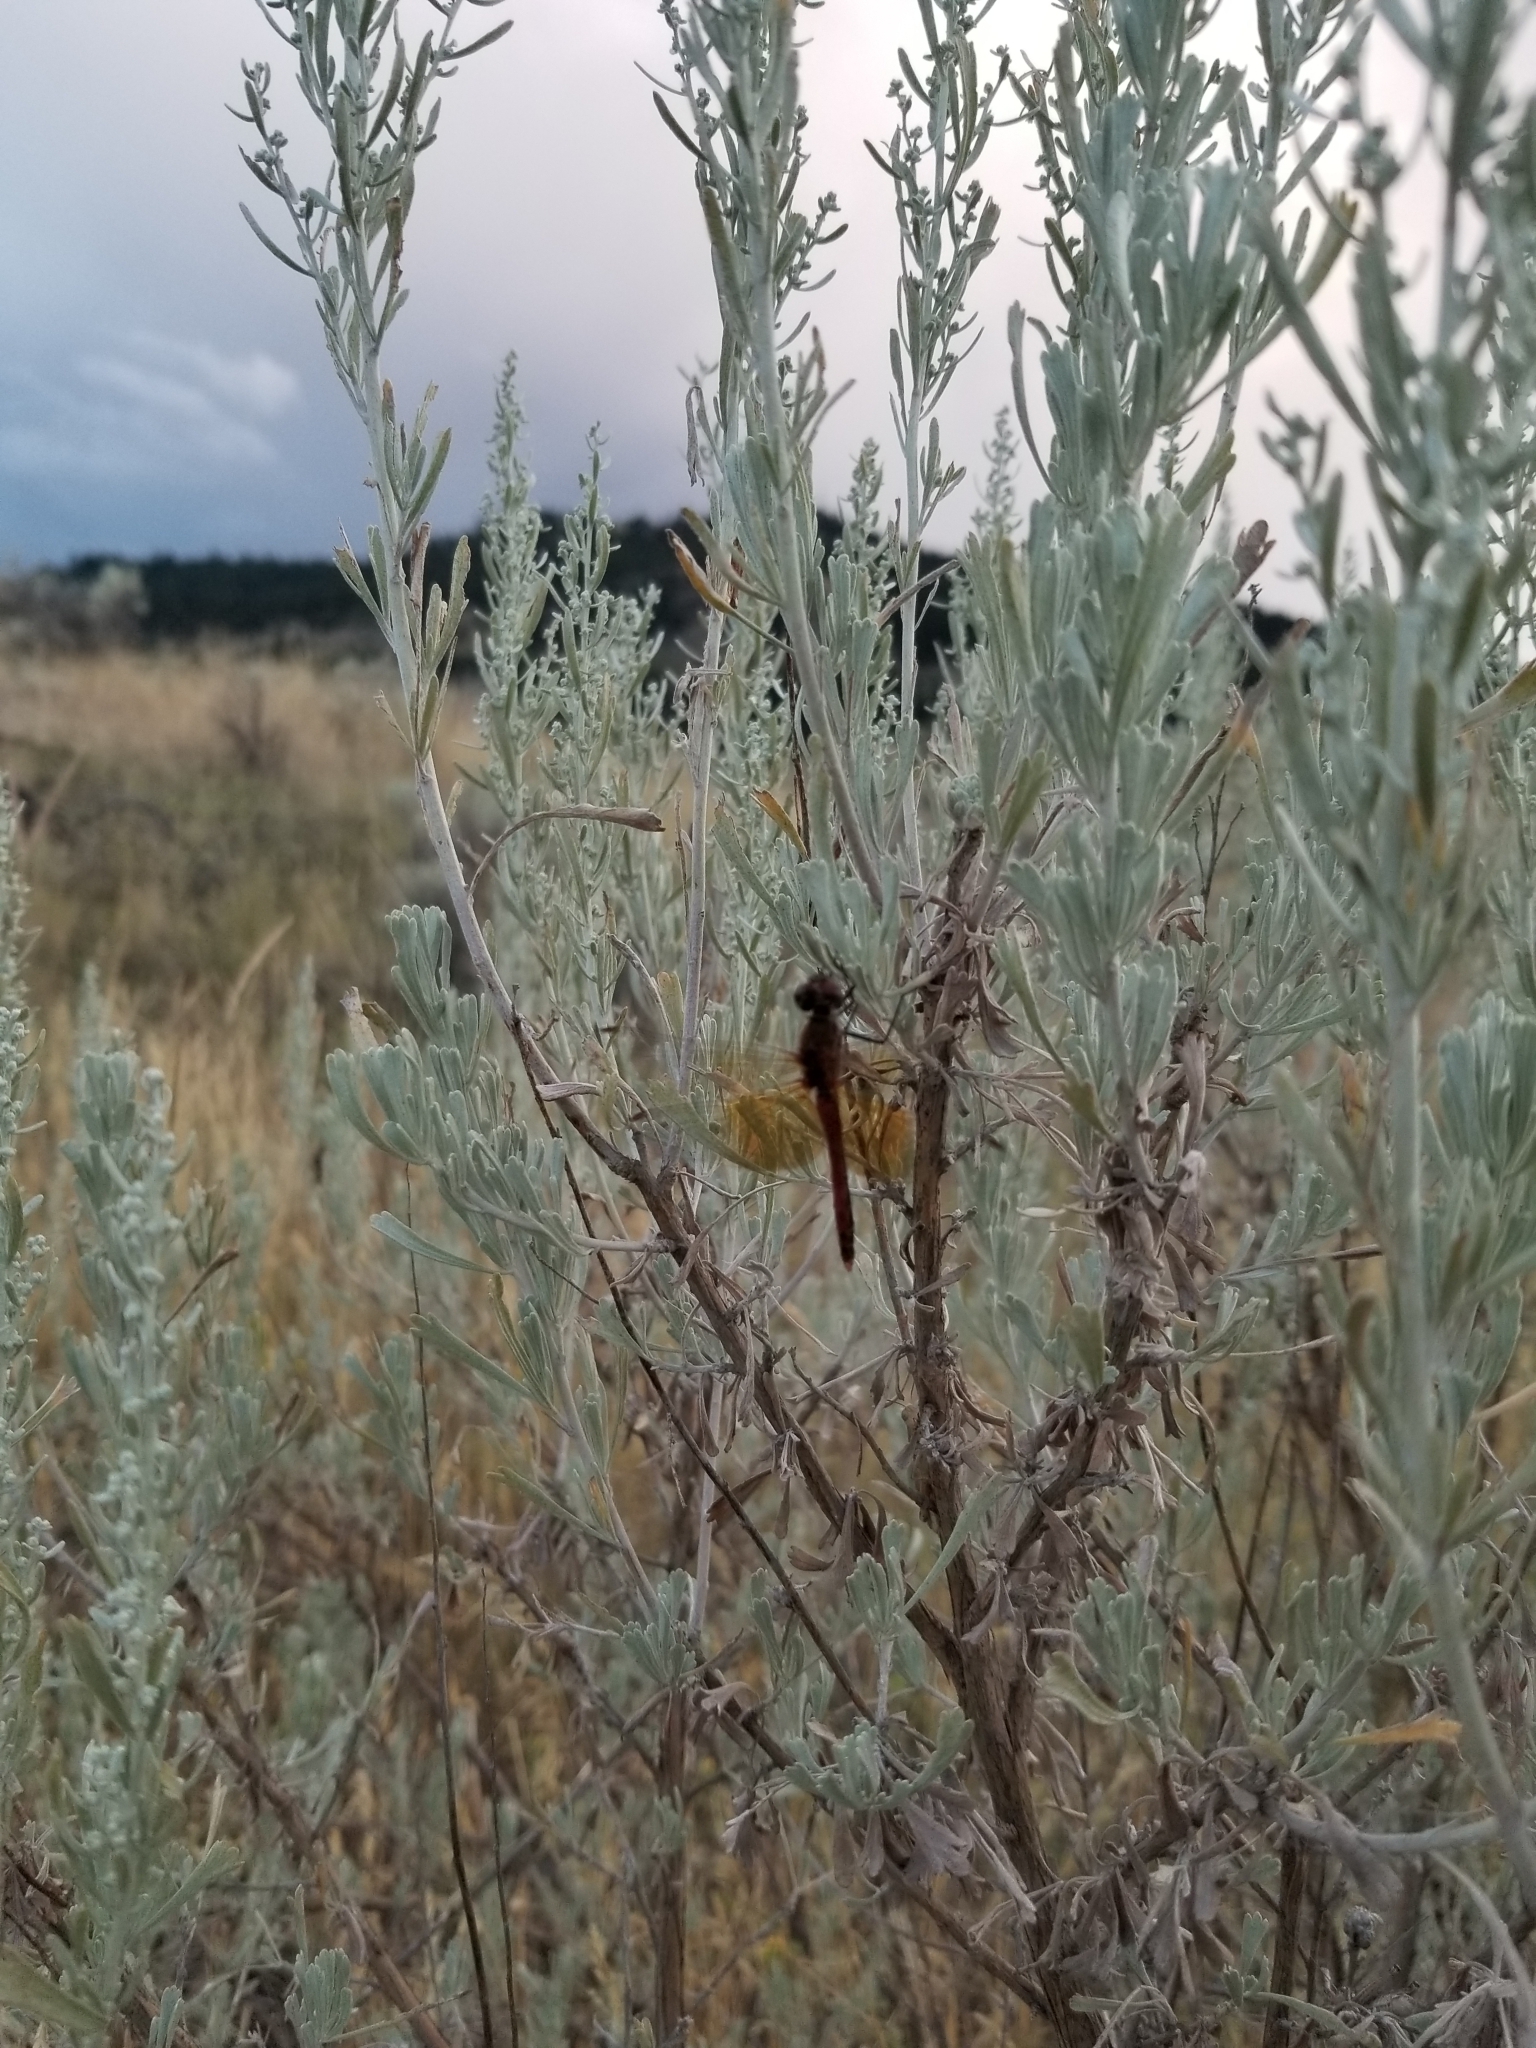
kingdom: Animalia
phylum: Arthropoda
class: Insecta
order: Odonata
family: Libellulidae
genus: Sympetrum
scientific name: Sympetrum semicinctum
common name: Band-winged meadowhawk
